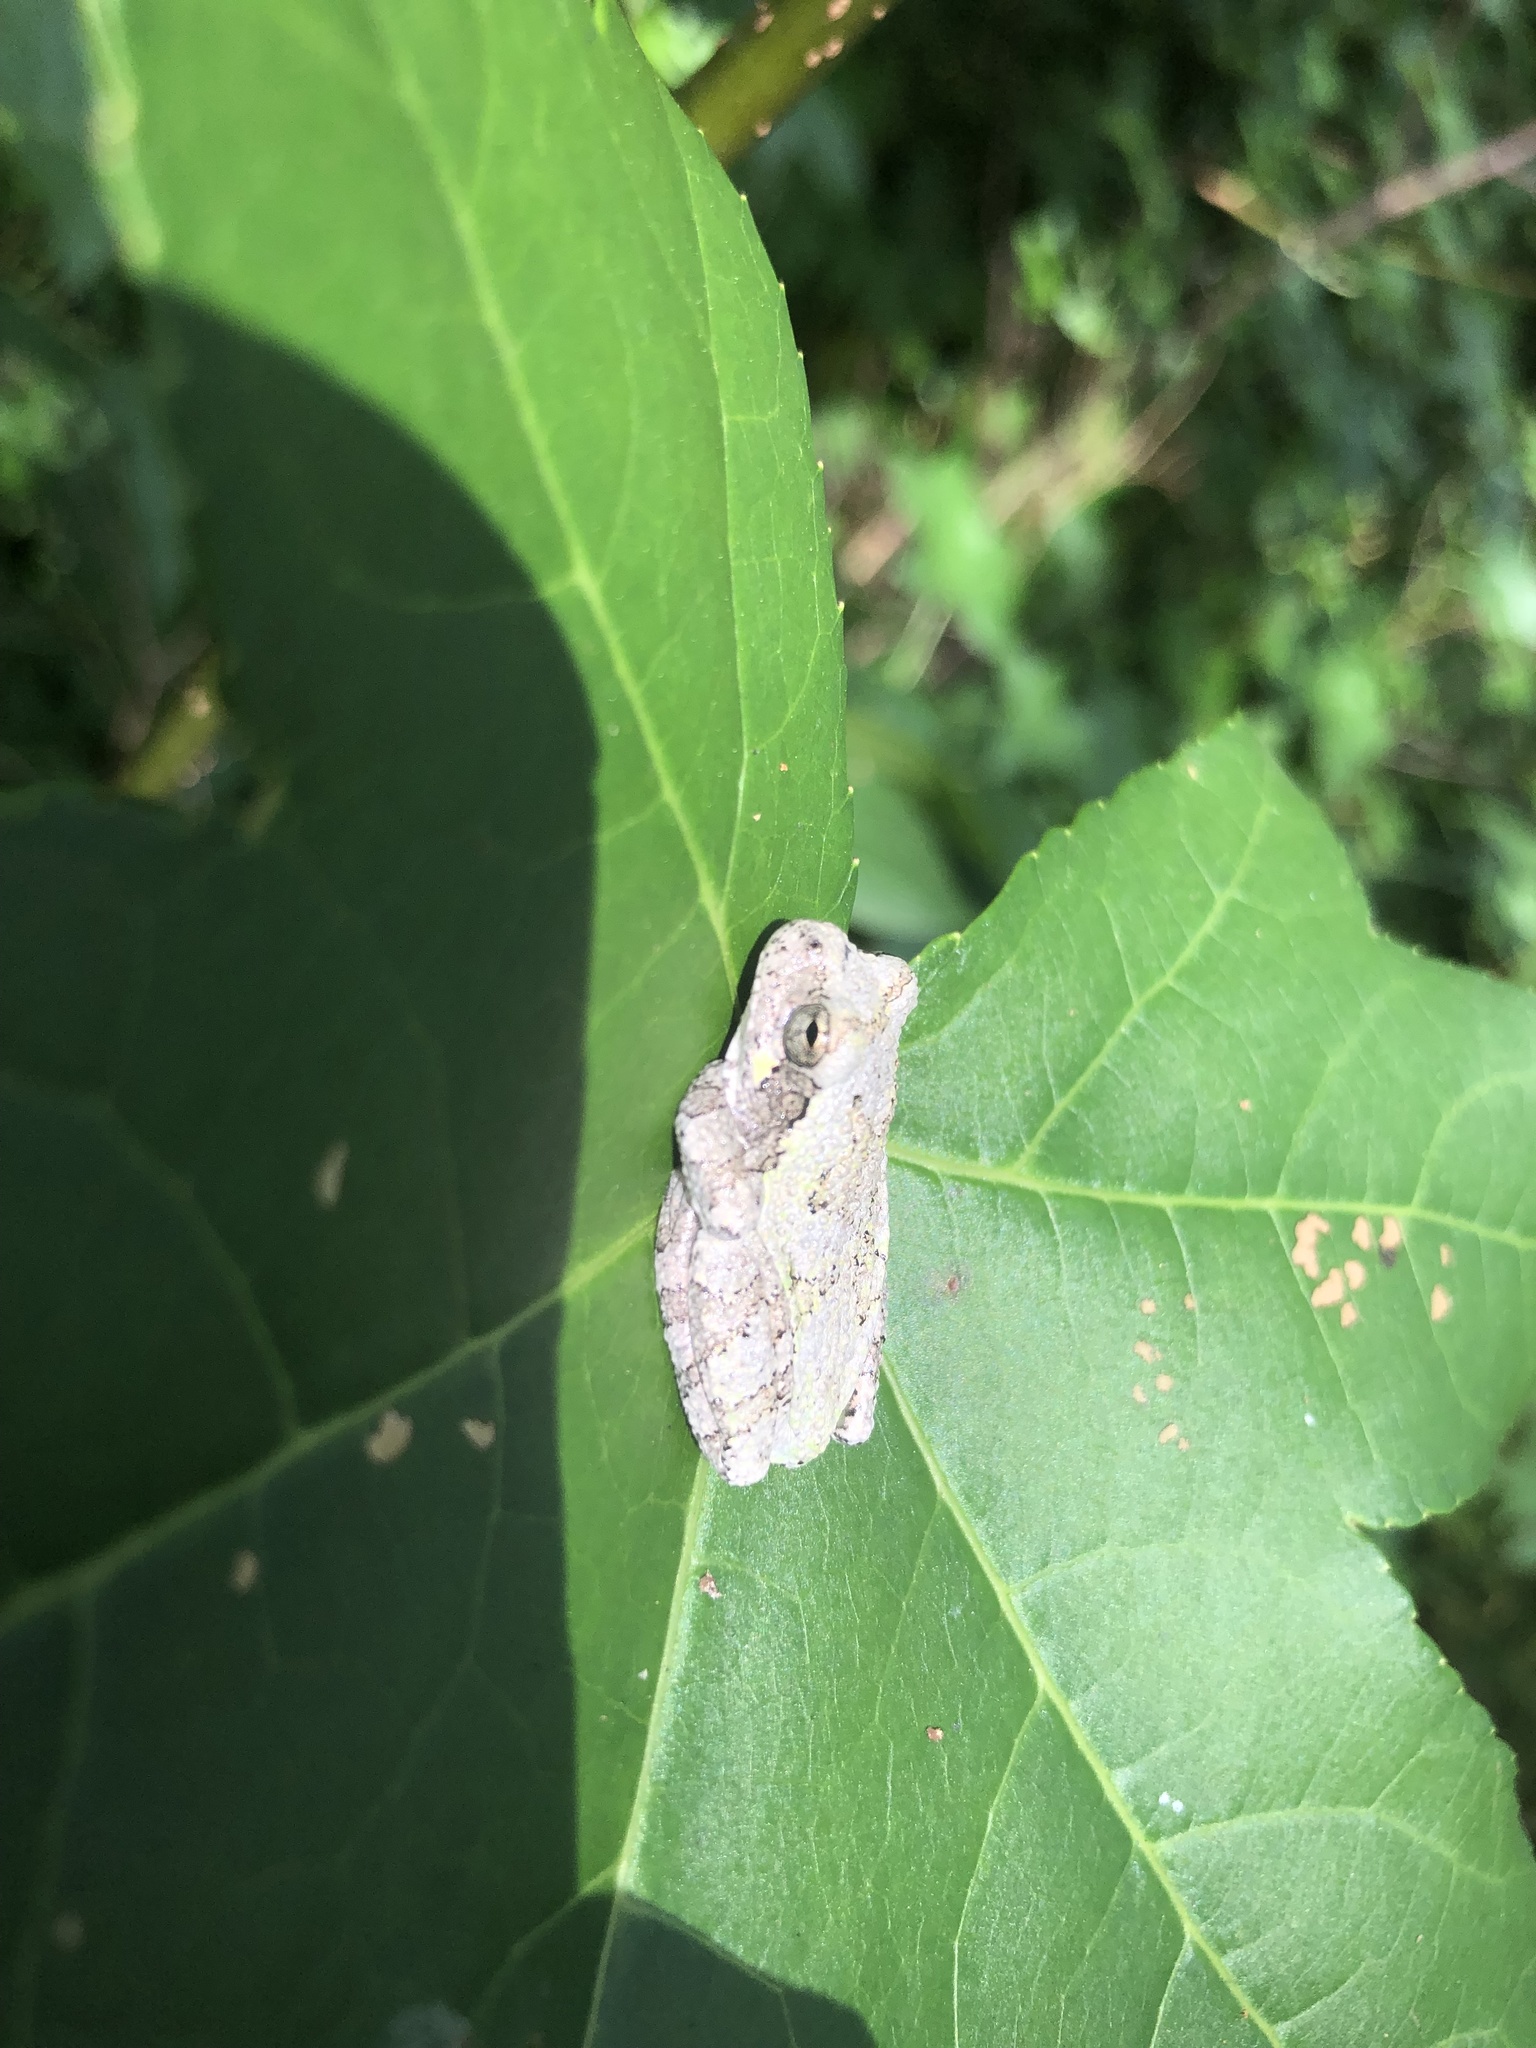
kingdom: Animalia
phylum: Chordata
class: Amphibia
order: Anura
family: Hylidae
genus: Dryophytes
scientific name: Dryophytes chrysoscelis
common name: Cope's gray treefrog
